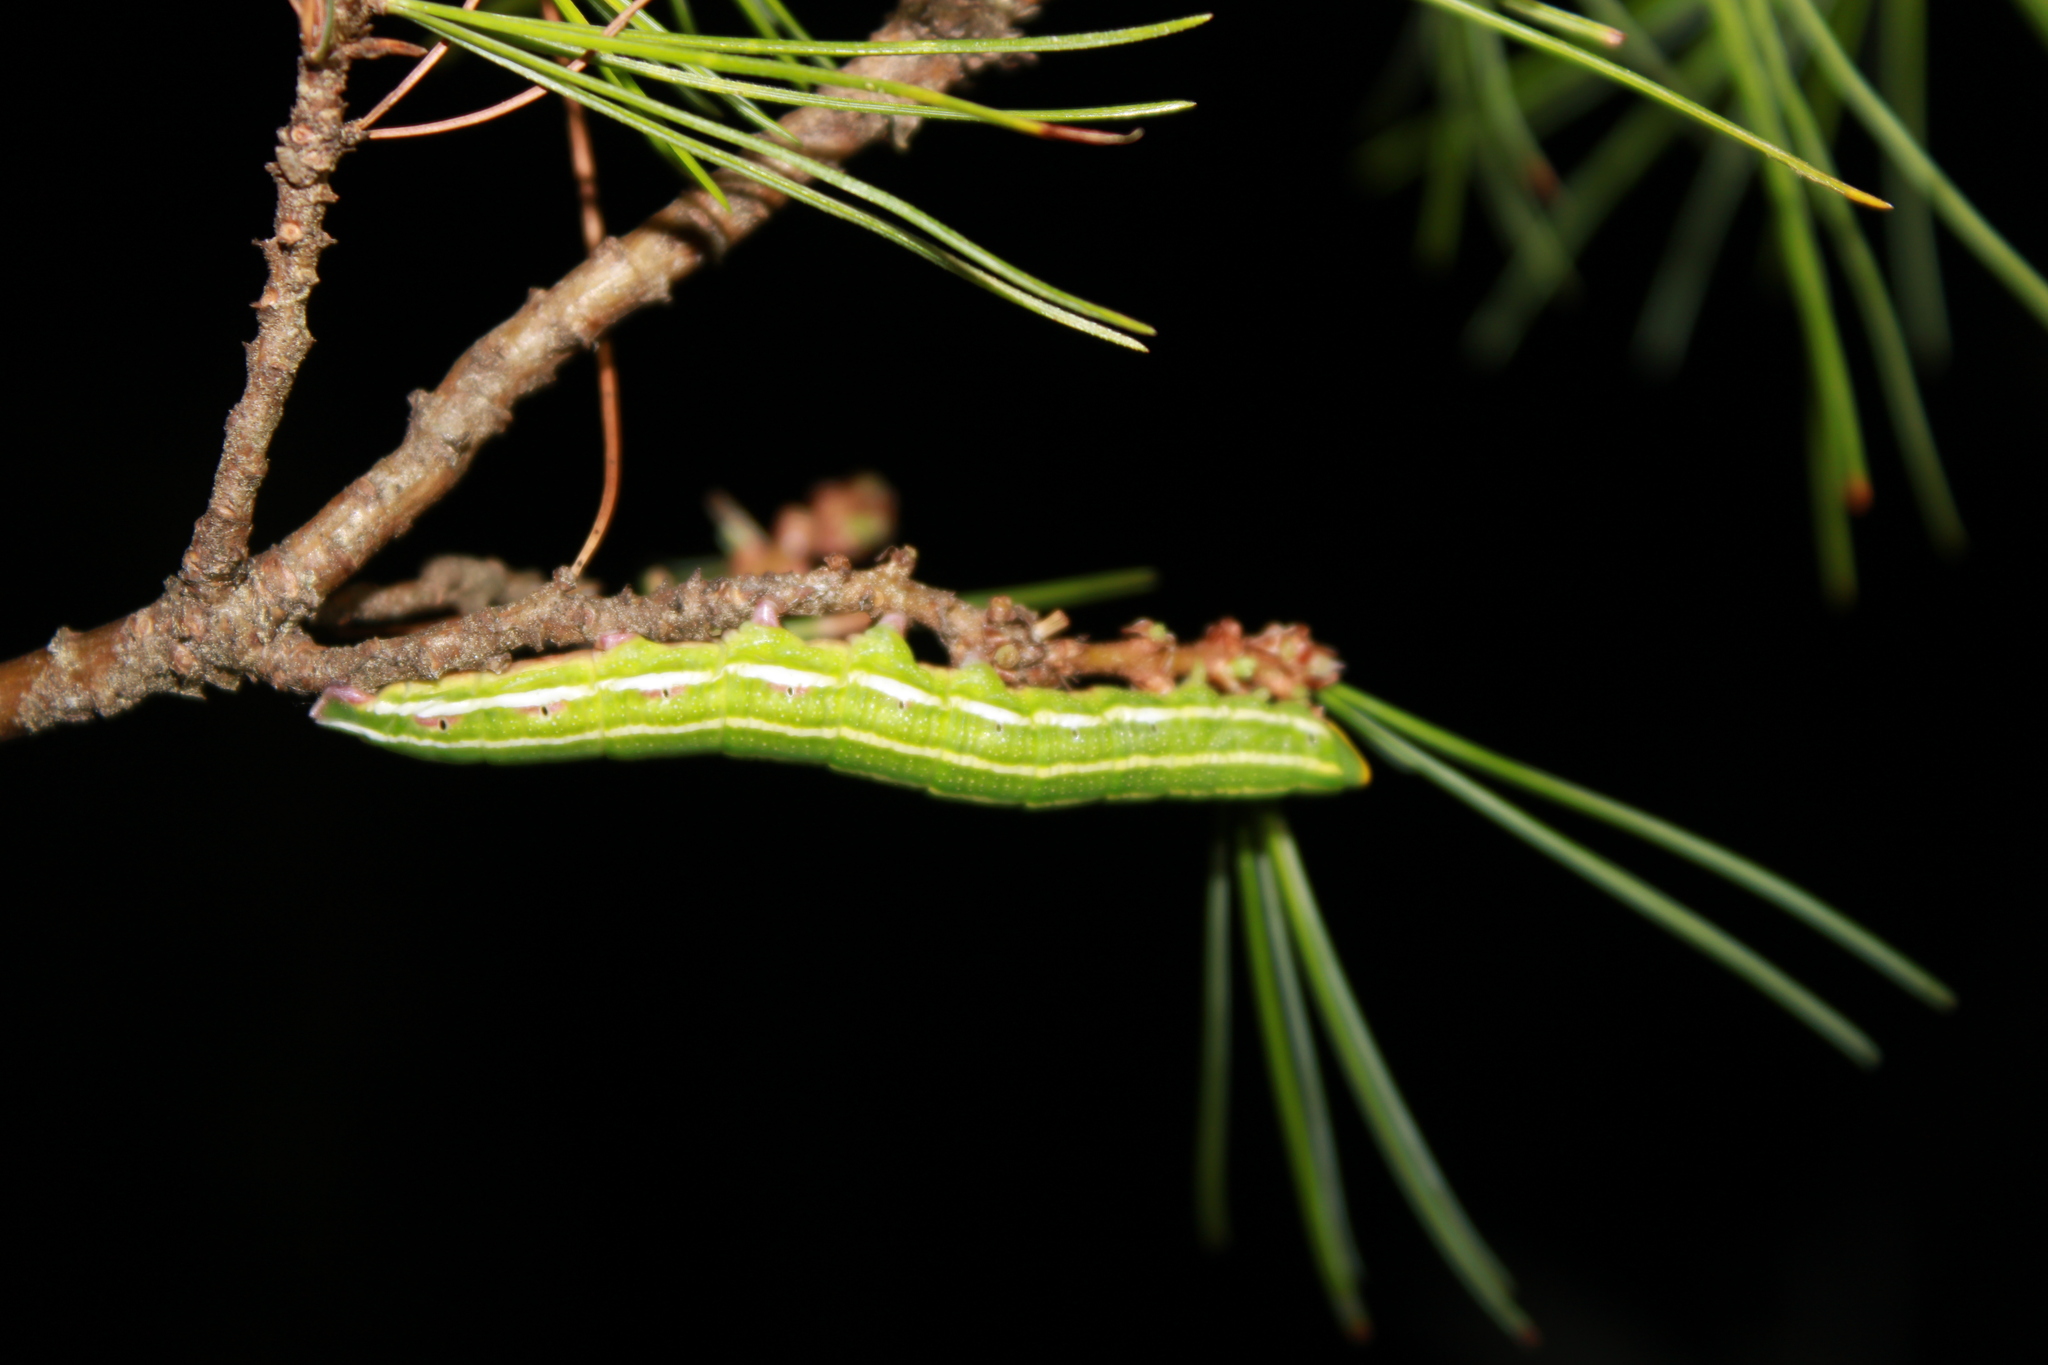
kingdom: Animalia
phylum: Arthropoda
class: Insecta
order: Lepidoptera
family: Sphingidae
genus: Lapara
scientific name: Lapara bombycoides
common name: Northern pine sphinx
